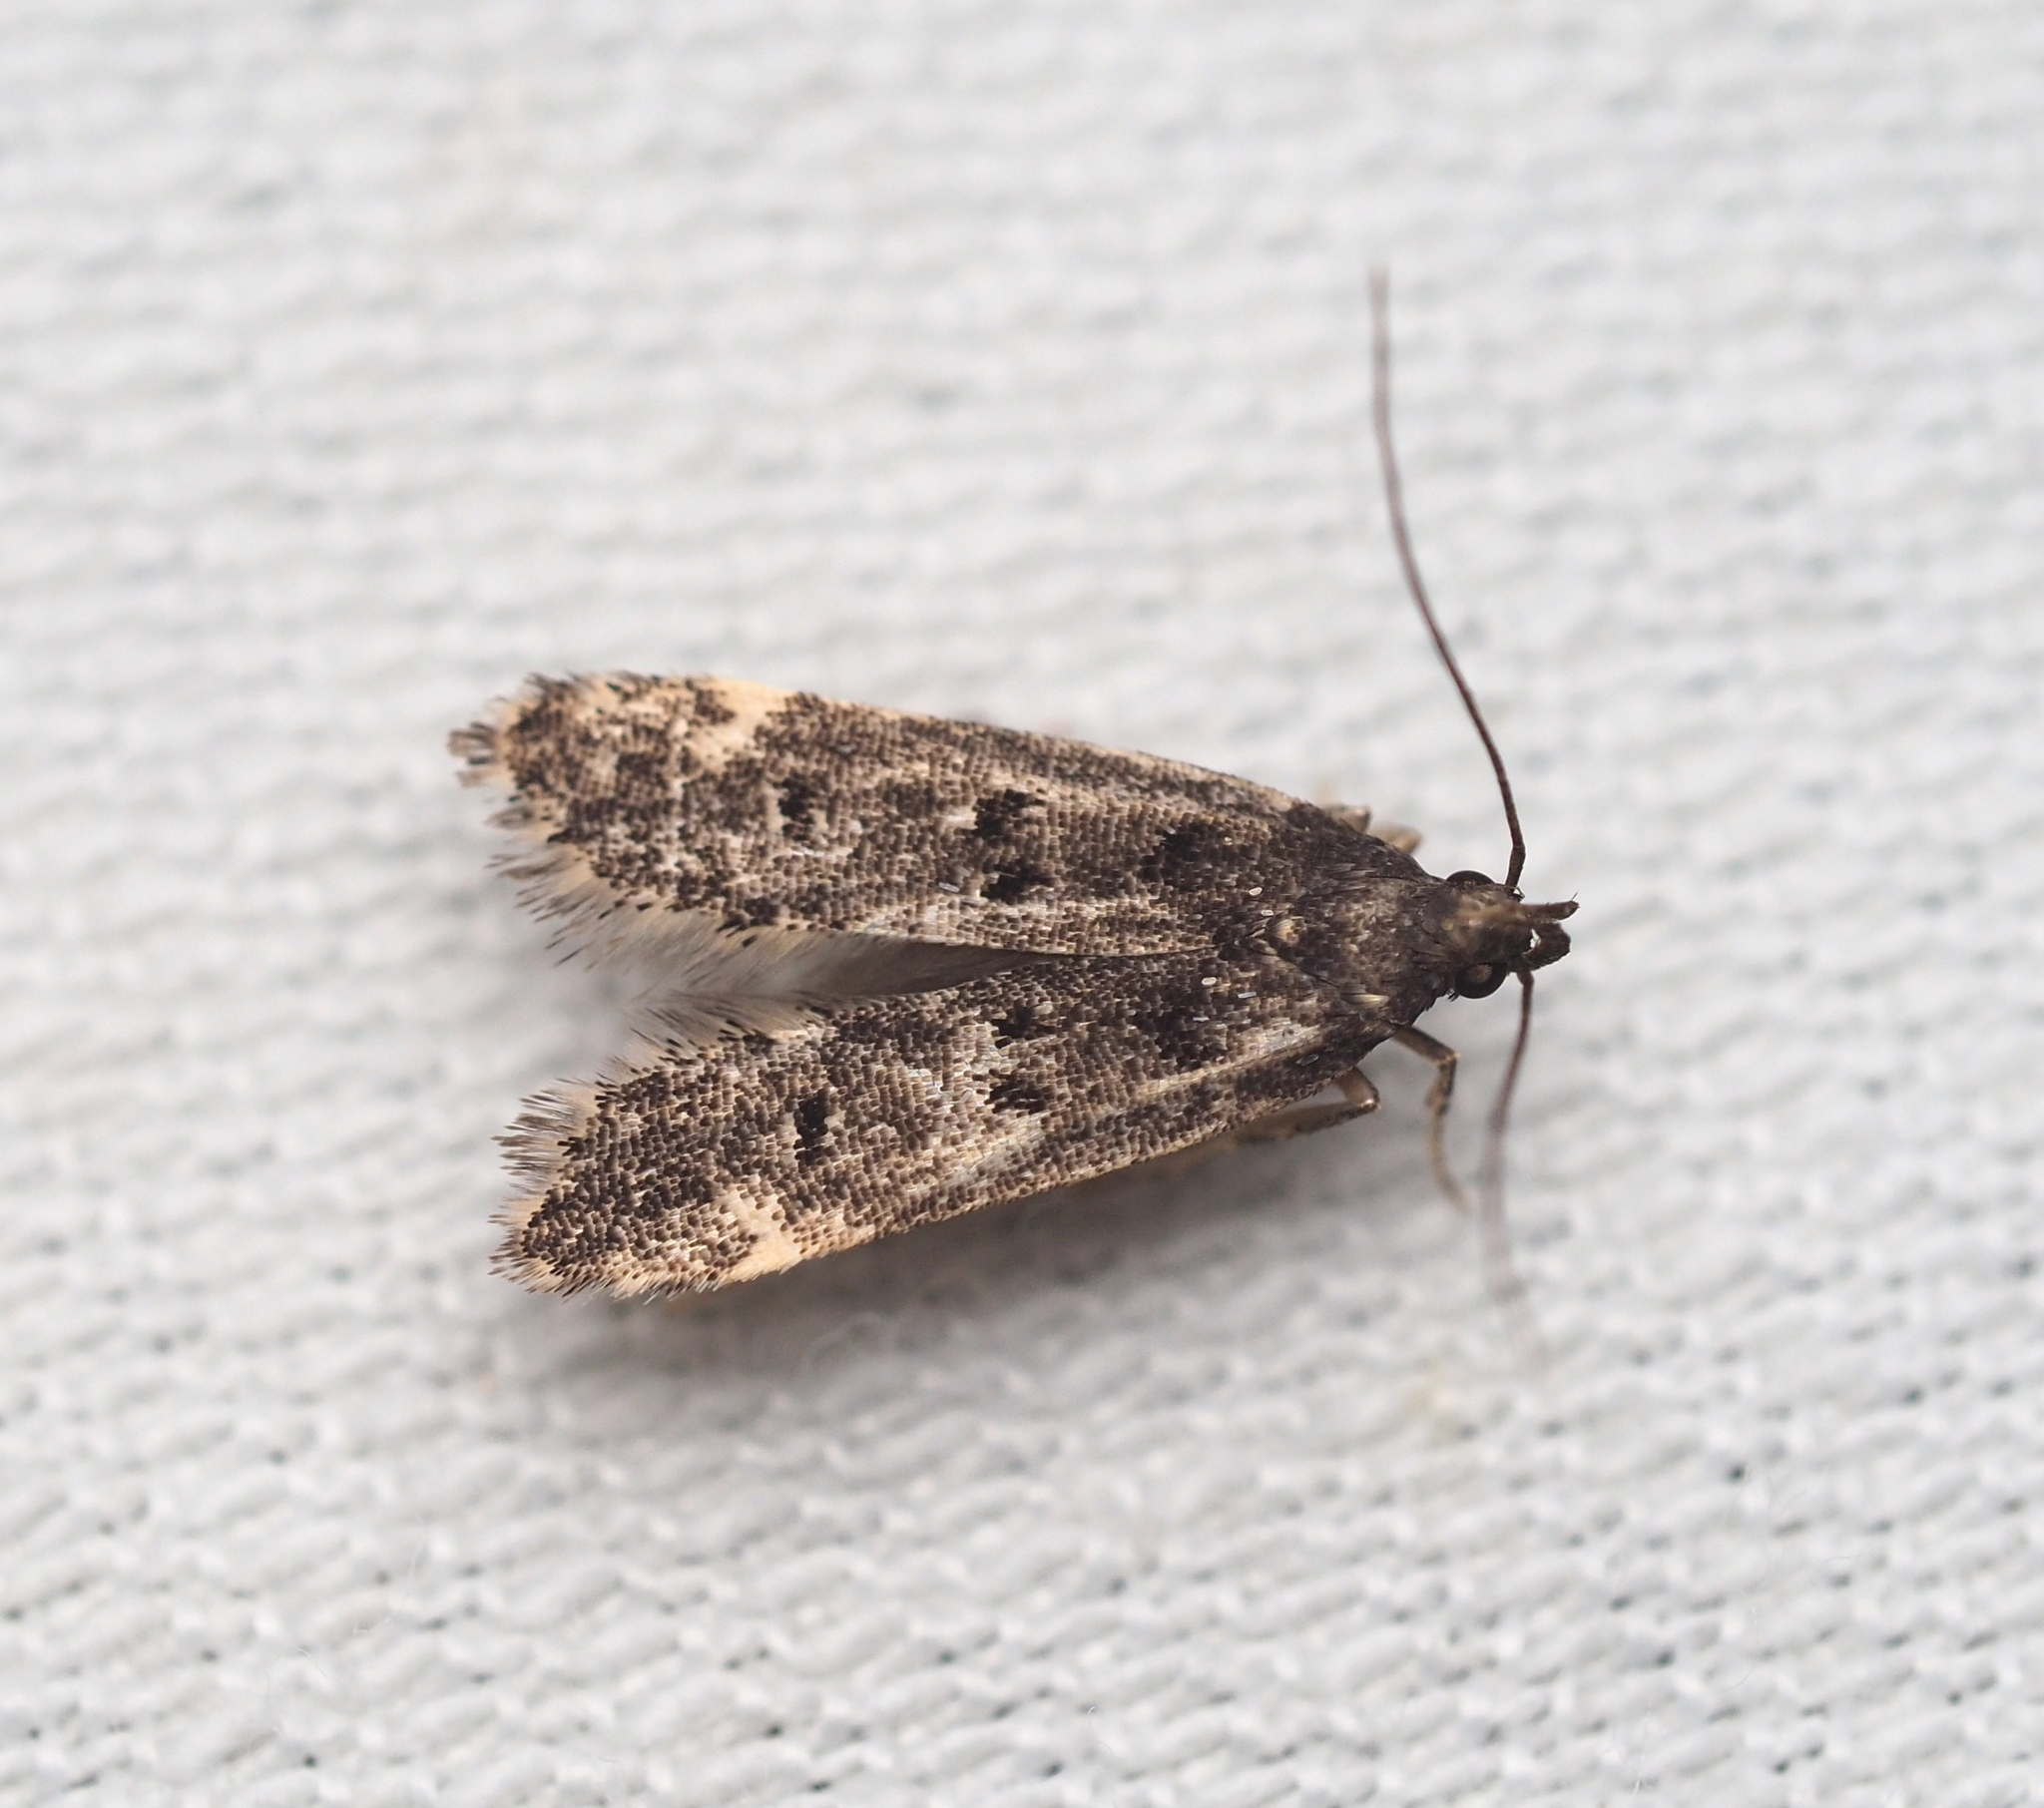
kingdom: Animalia
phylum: Arthropoda
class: Insecta
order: Lepidoptera
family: Gelechiidae
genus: Acanthophila
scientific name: Acanthophila alacella
